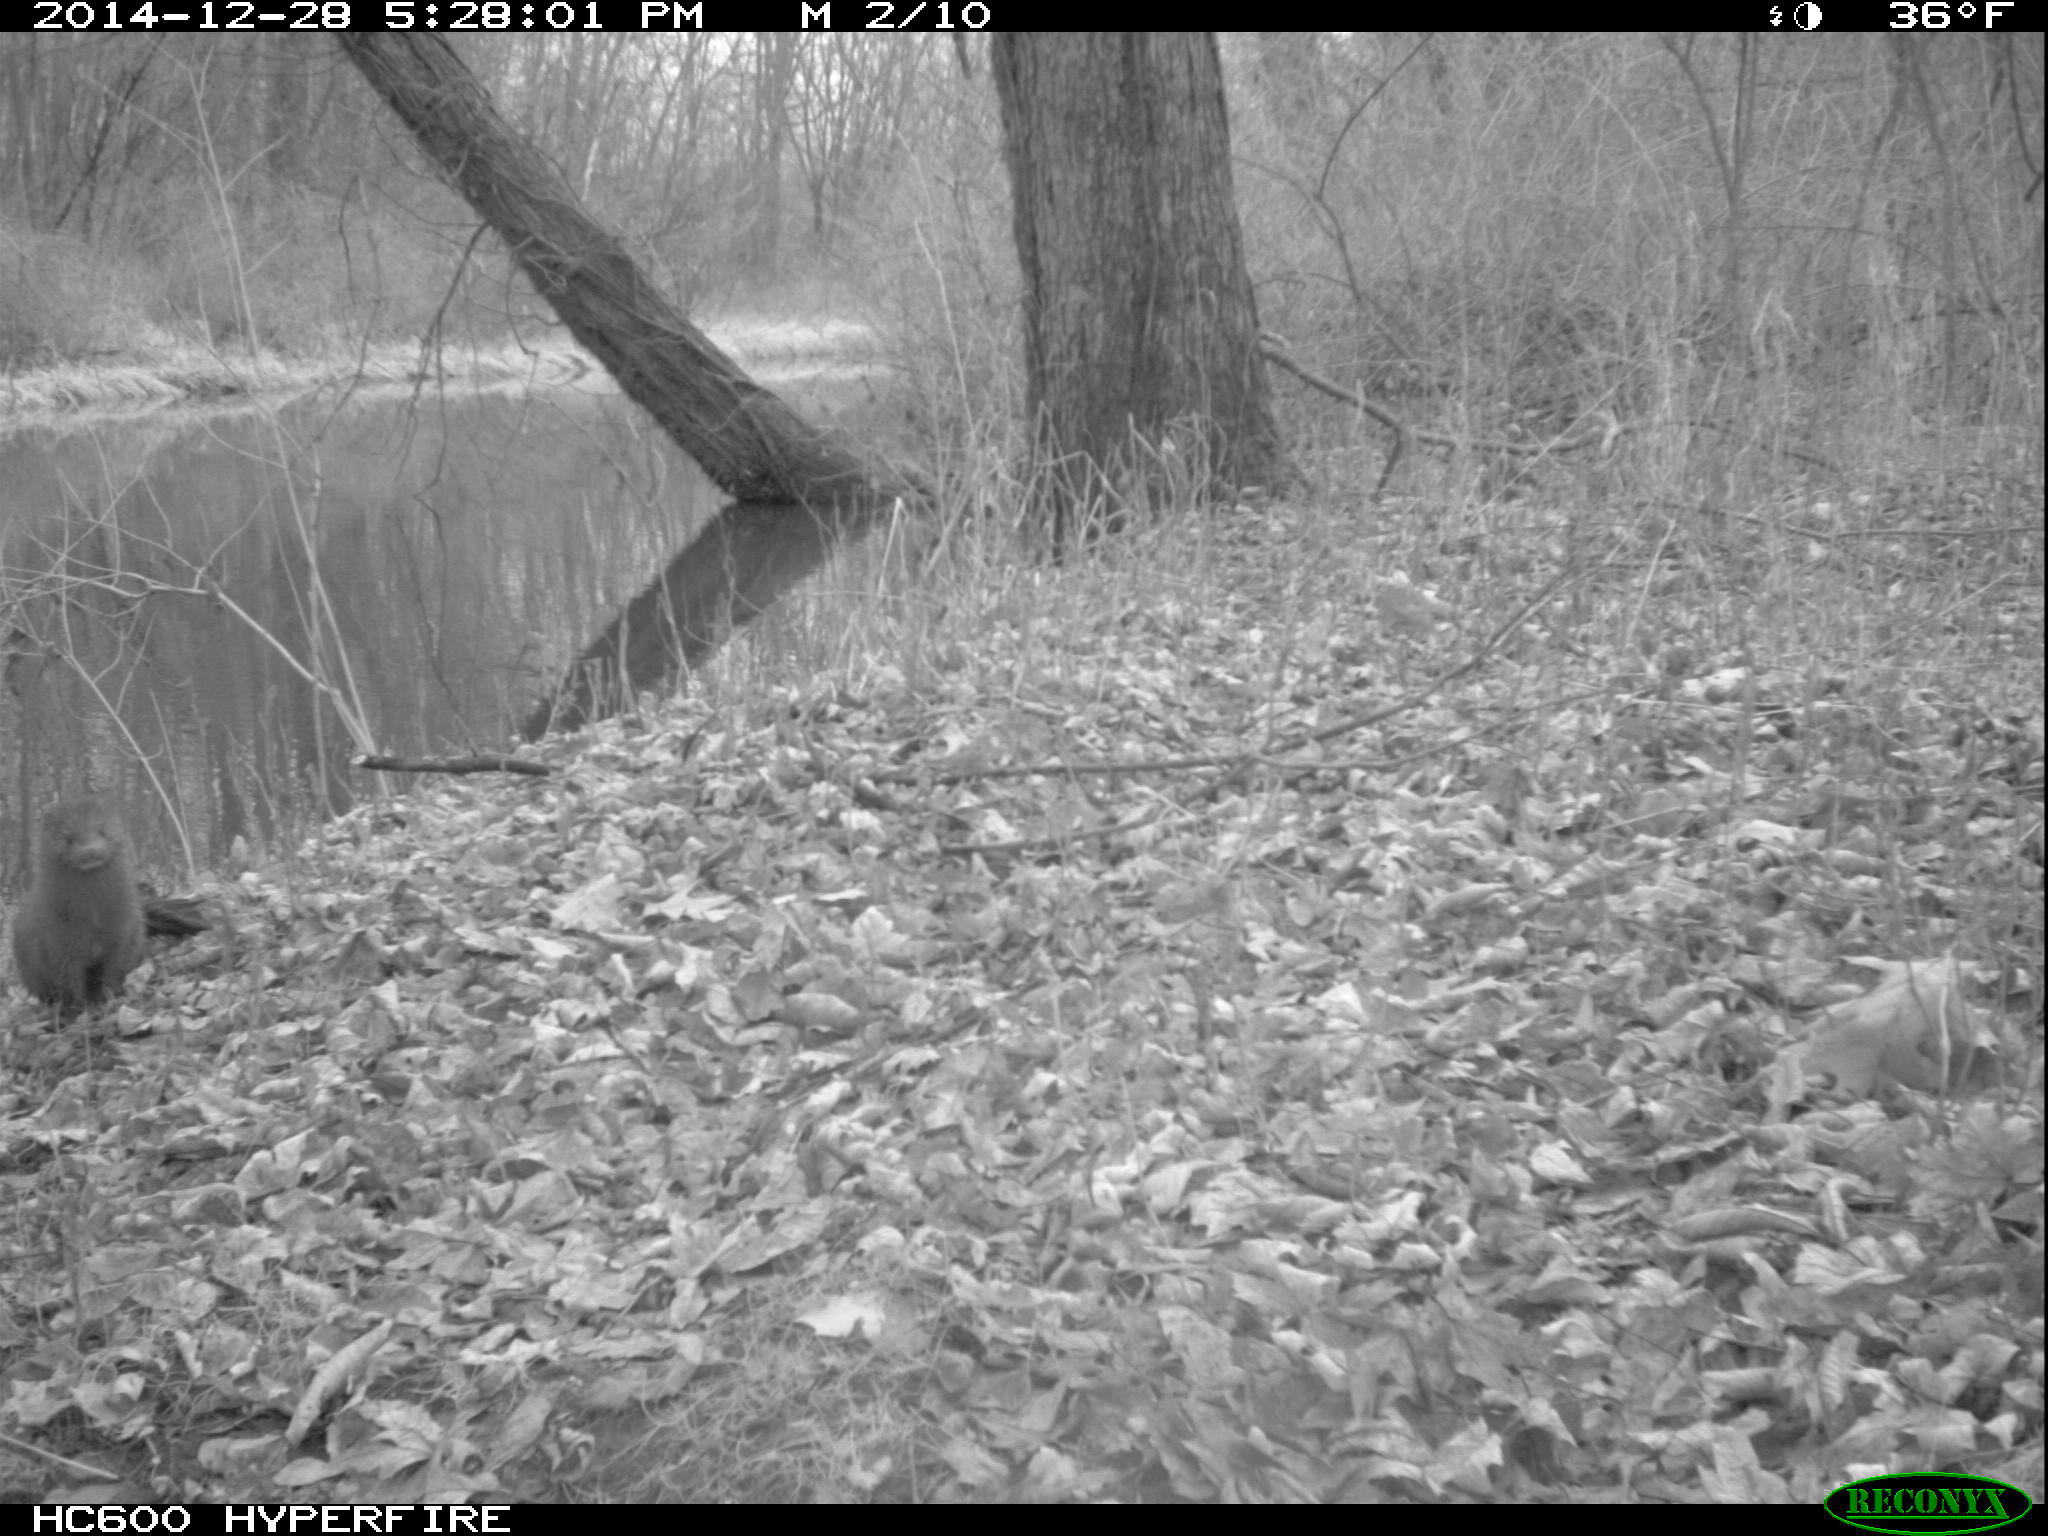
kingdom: Animalia
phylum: Chordata
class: Mammalia
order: Carnivora
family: Mustelidae
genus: Mustela
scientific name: Mustela
